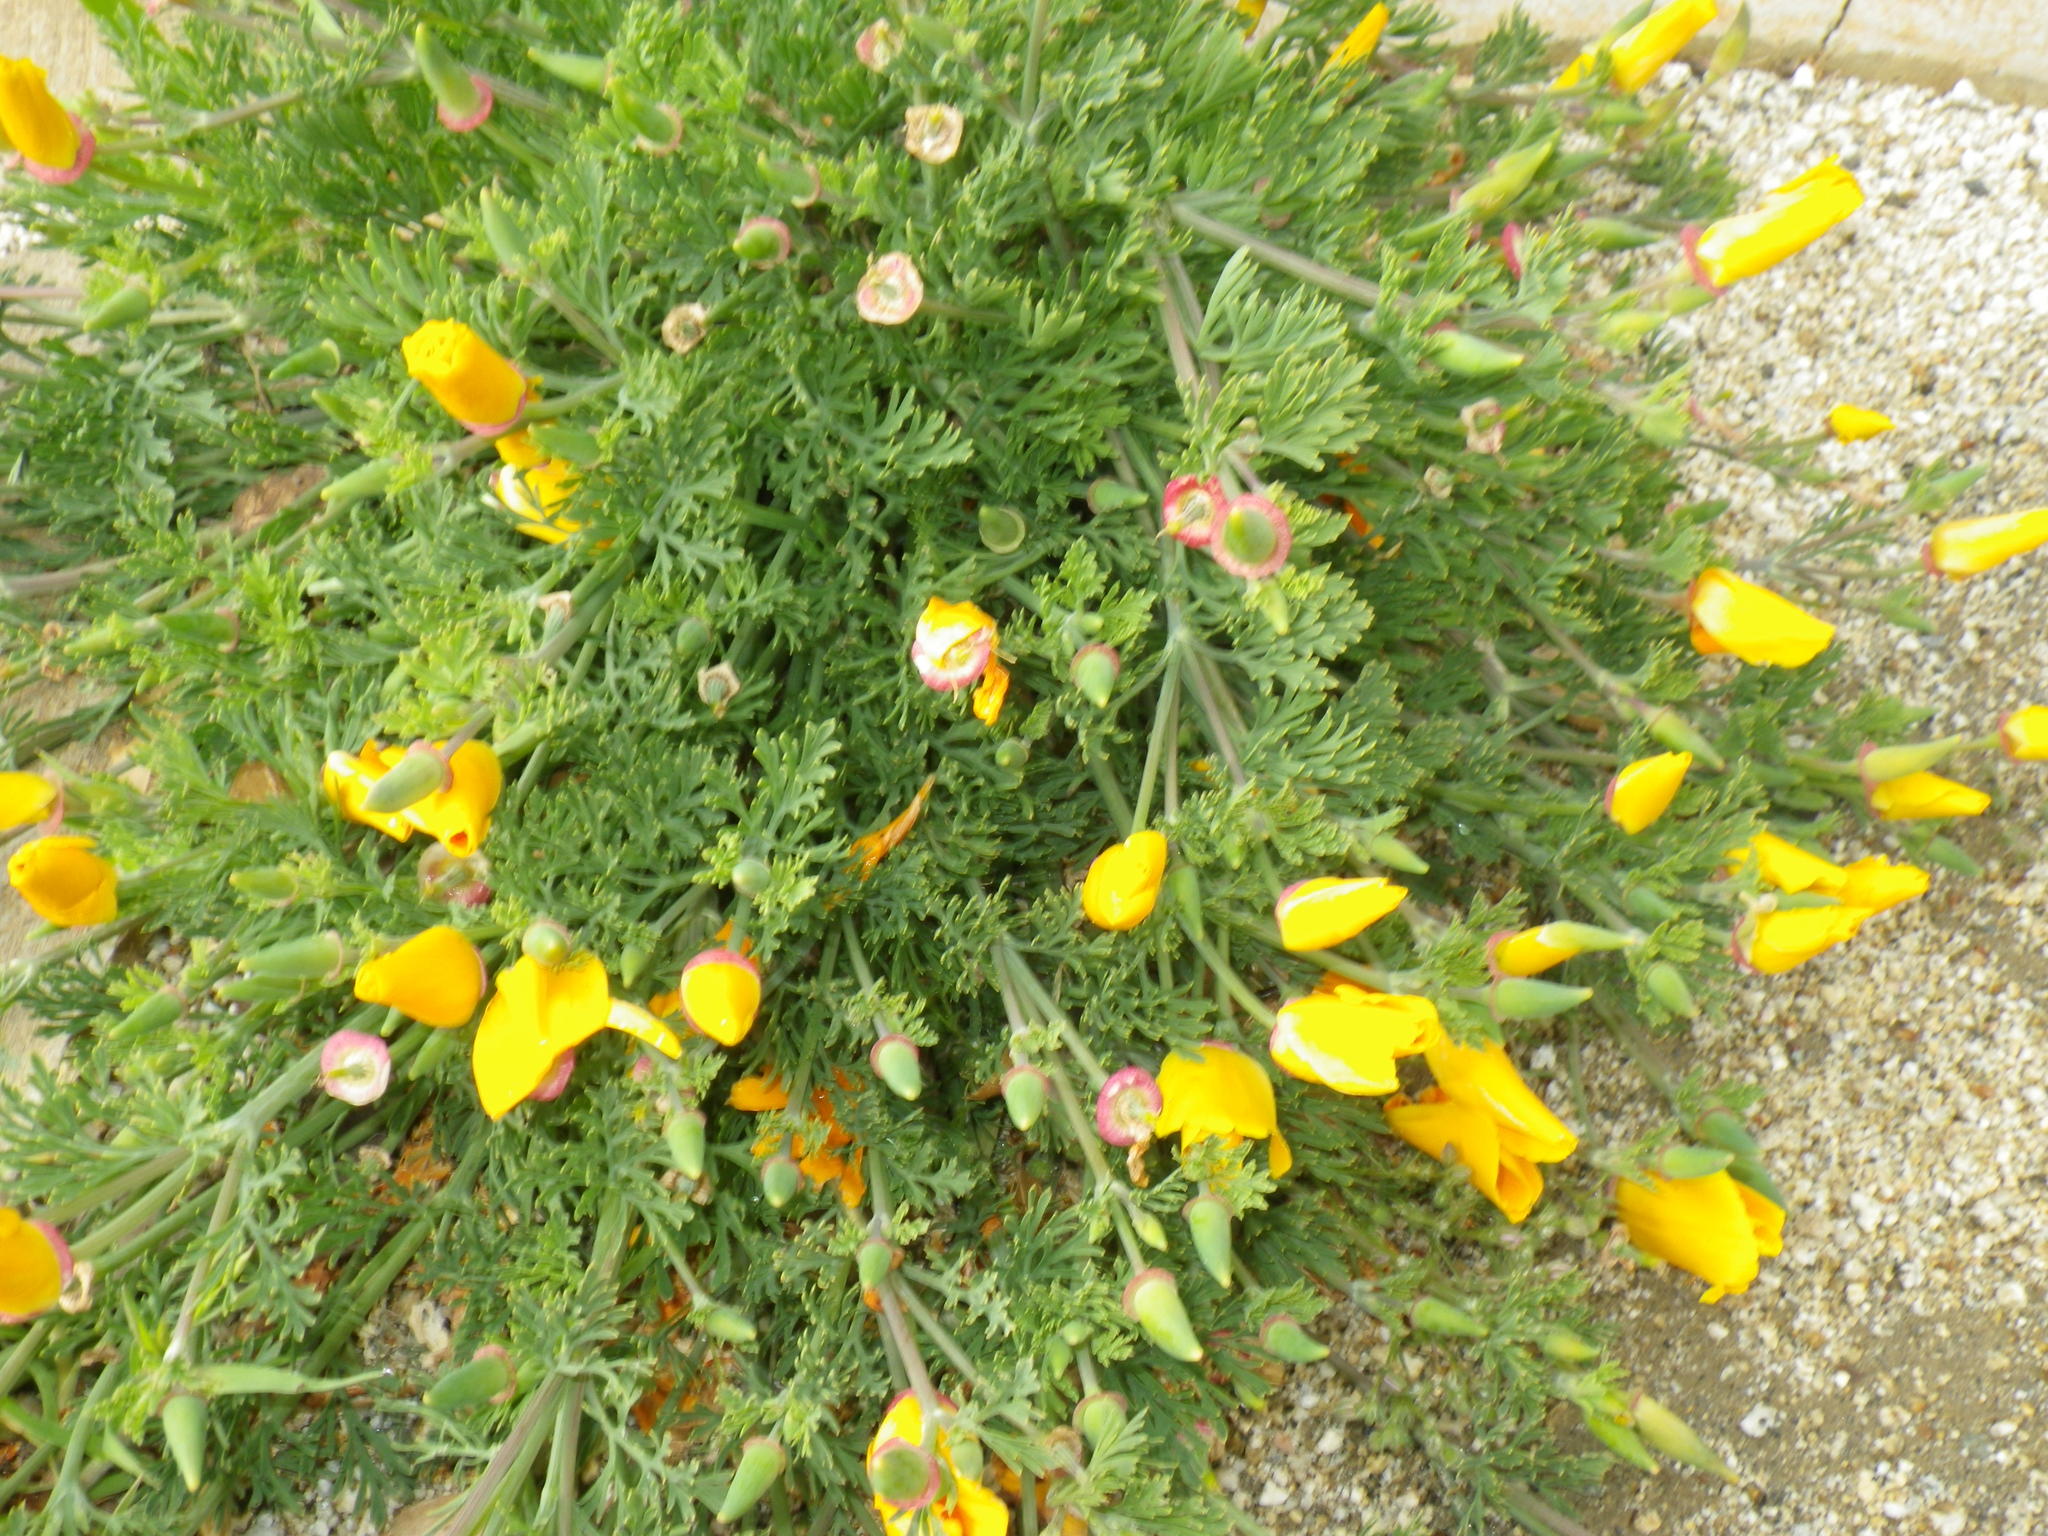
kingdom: Plantae
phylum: Tracheophyta
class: Magnoliopsida
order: Ranunculales
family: Papaveraceae
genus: Eschscholzia
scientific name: Eschscholzia californica
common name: California poppy
